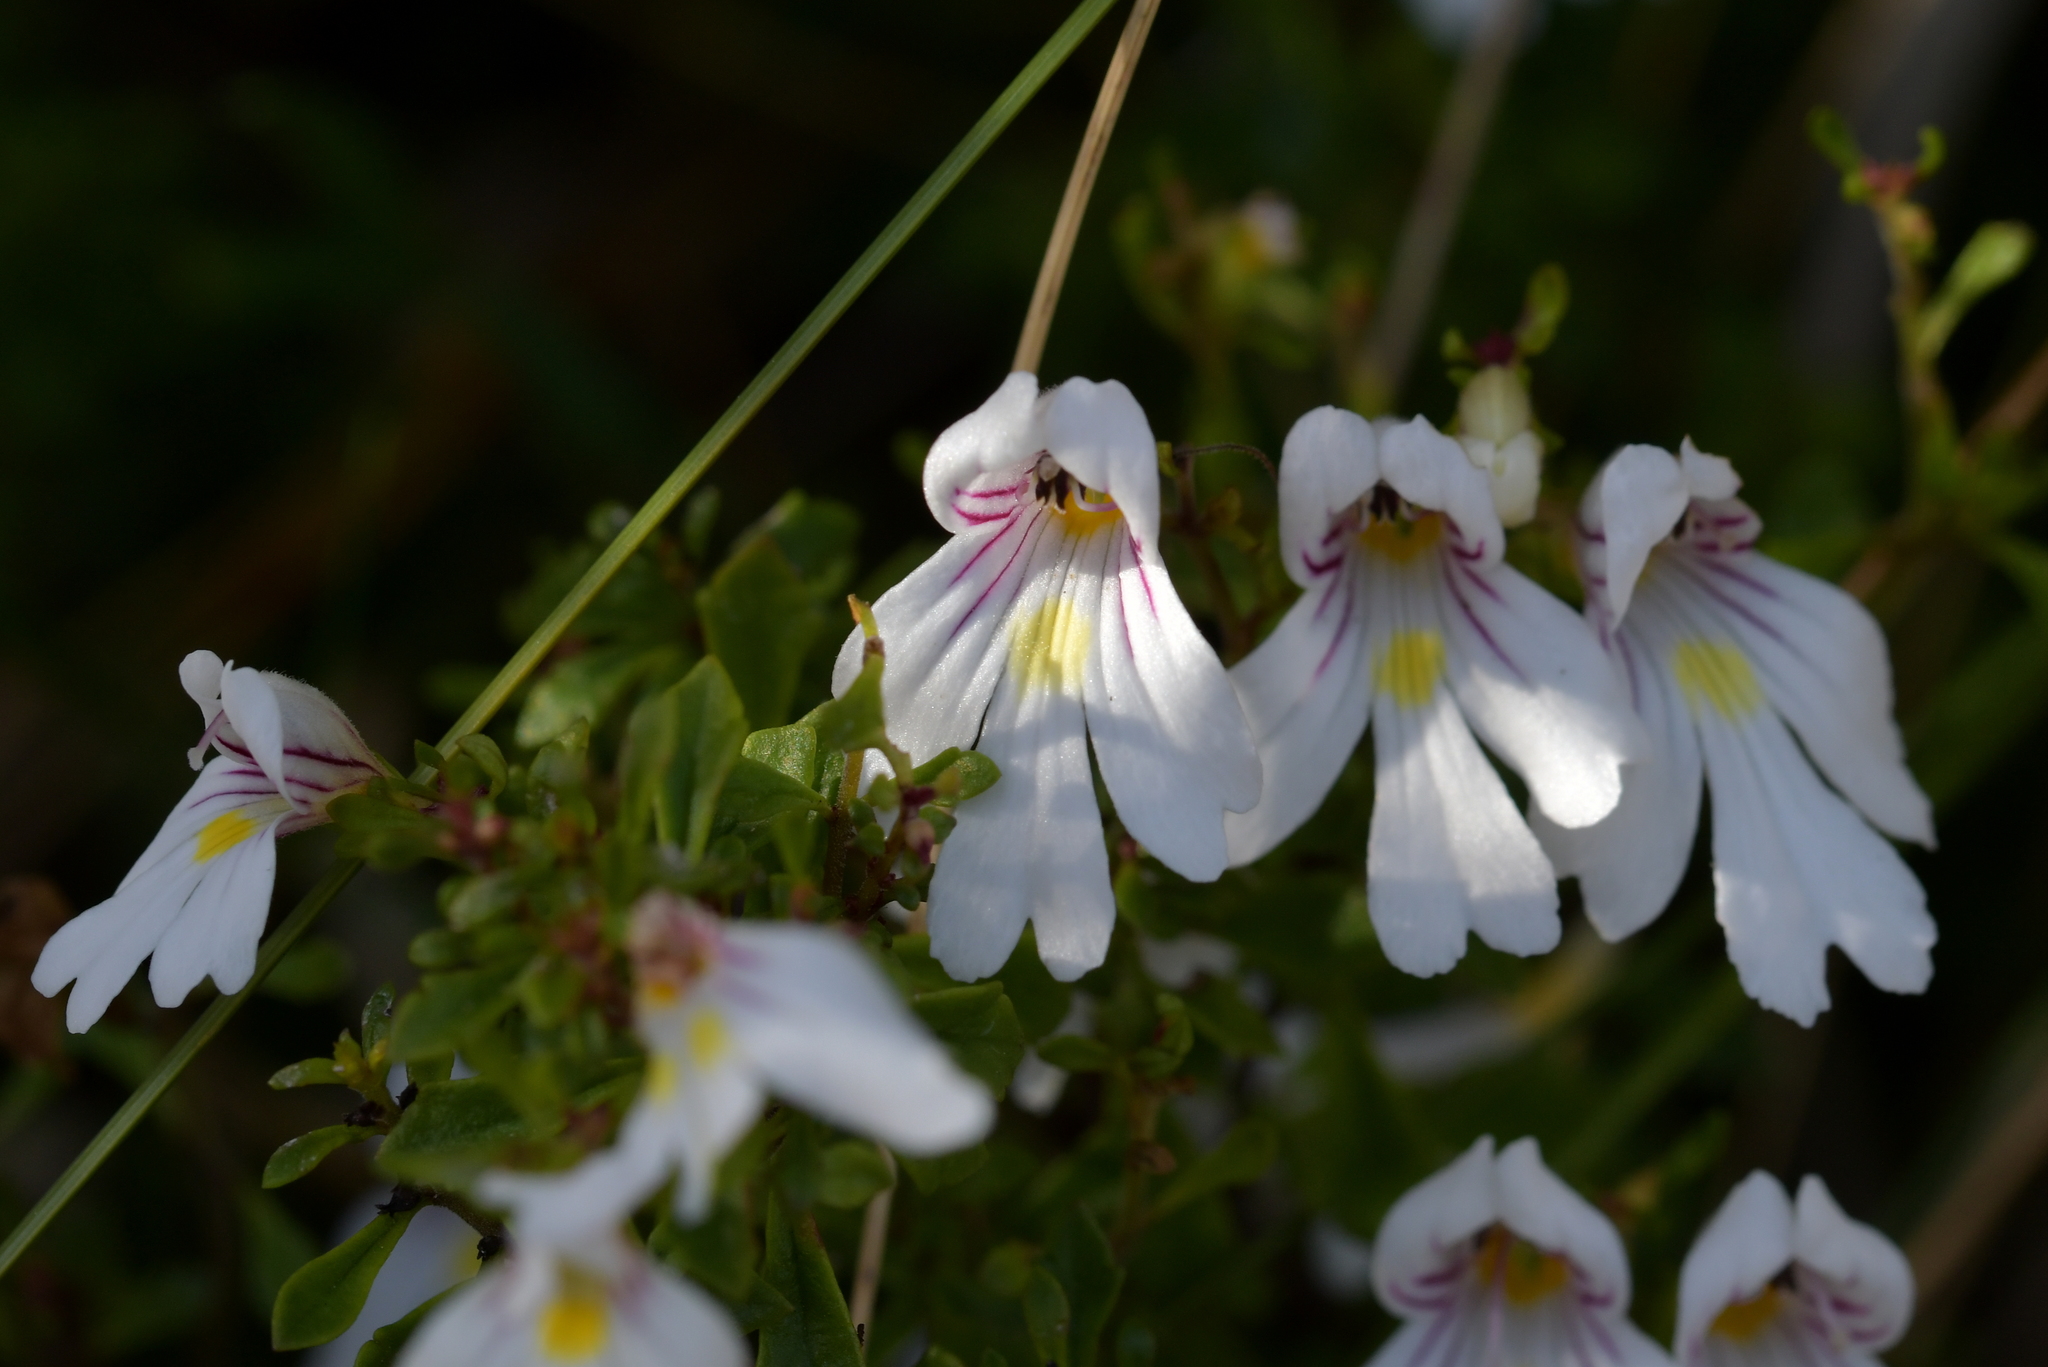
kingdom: Plantae
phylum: Tracheophyta
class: Magnoliopsida
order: Lamiales
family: Orobanchaceae
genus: Euphrasia
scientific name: Euphrasia cuneata
